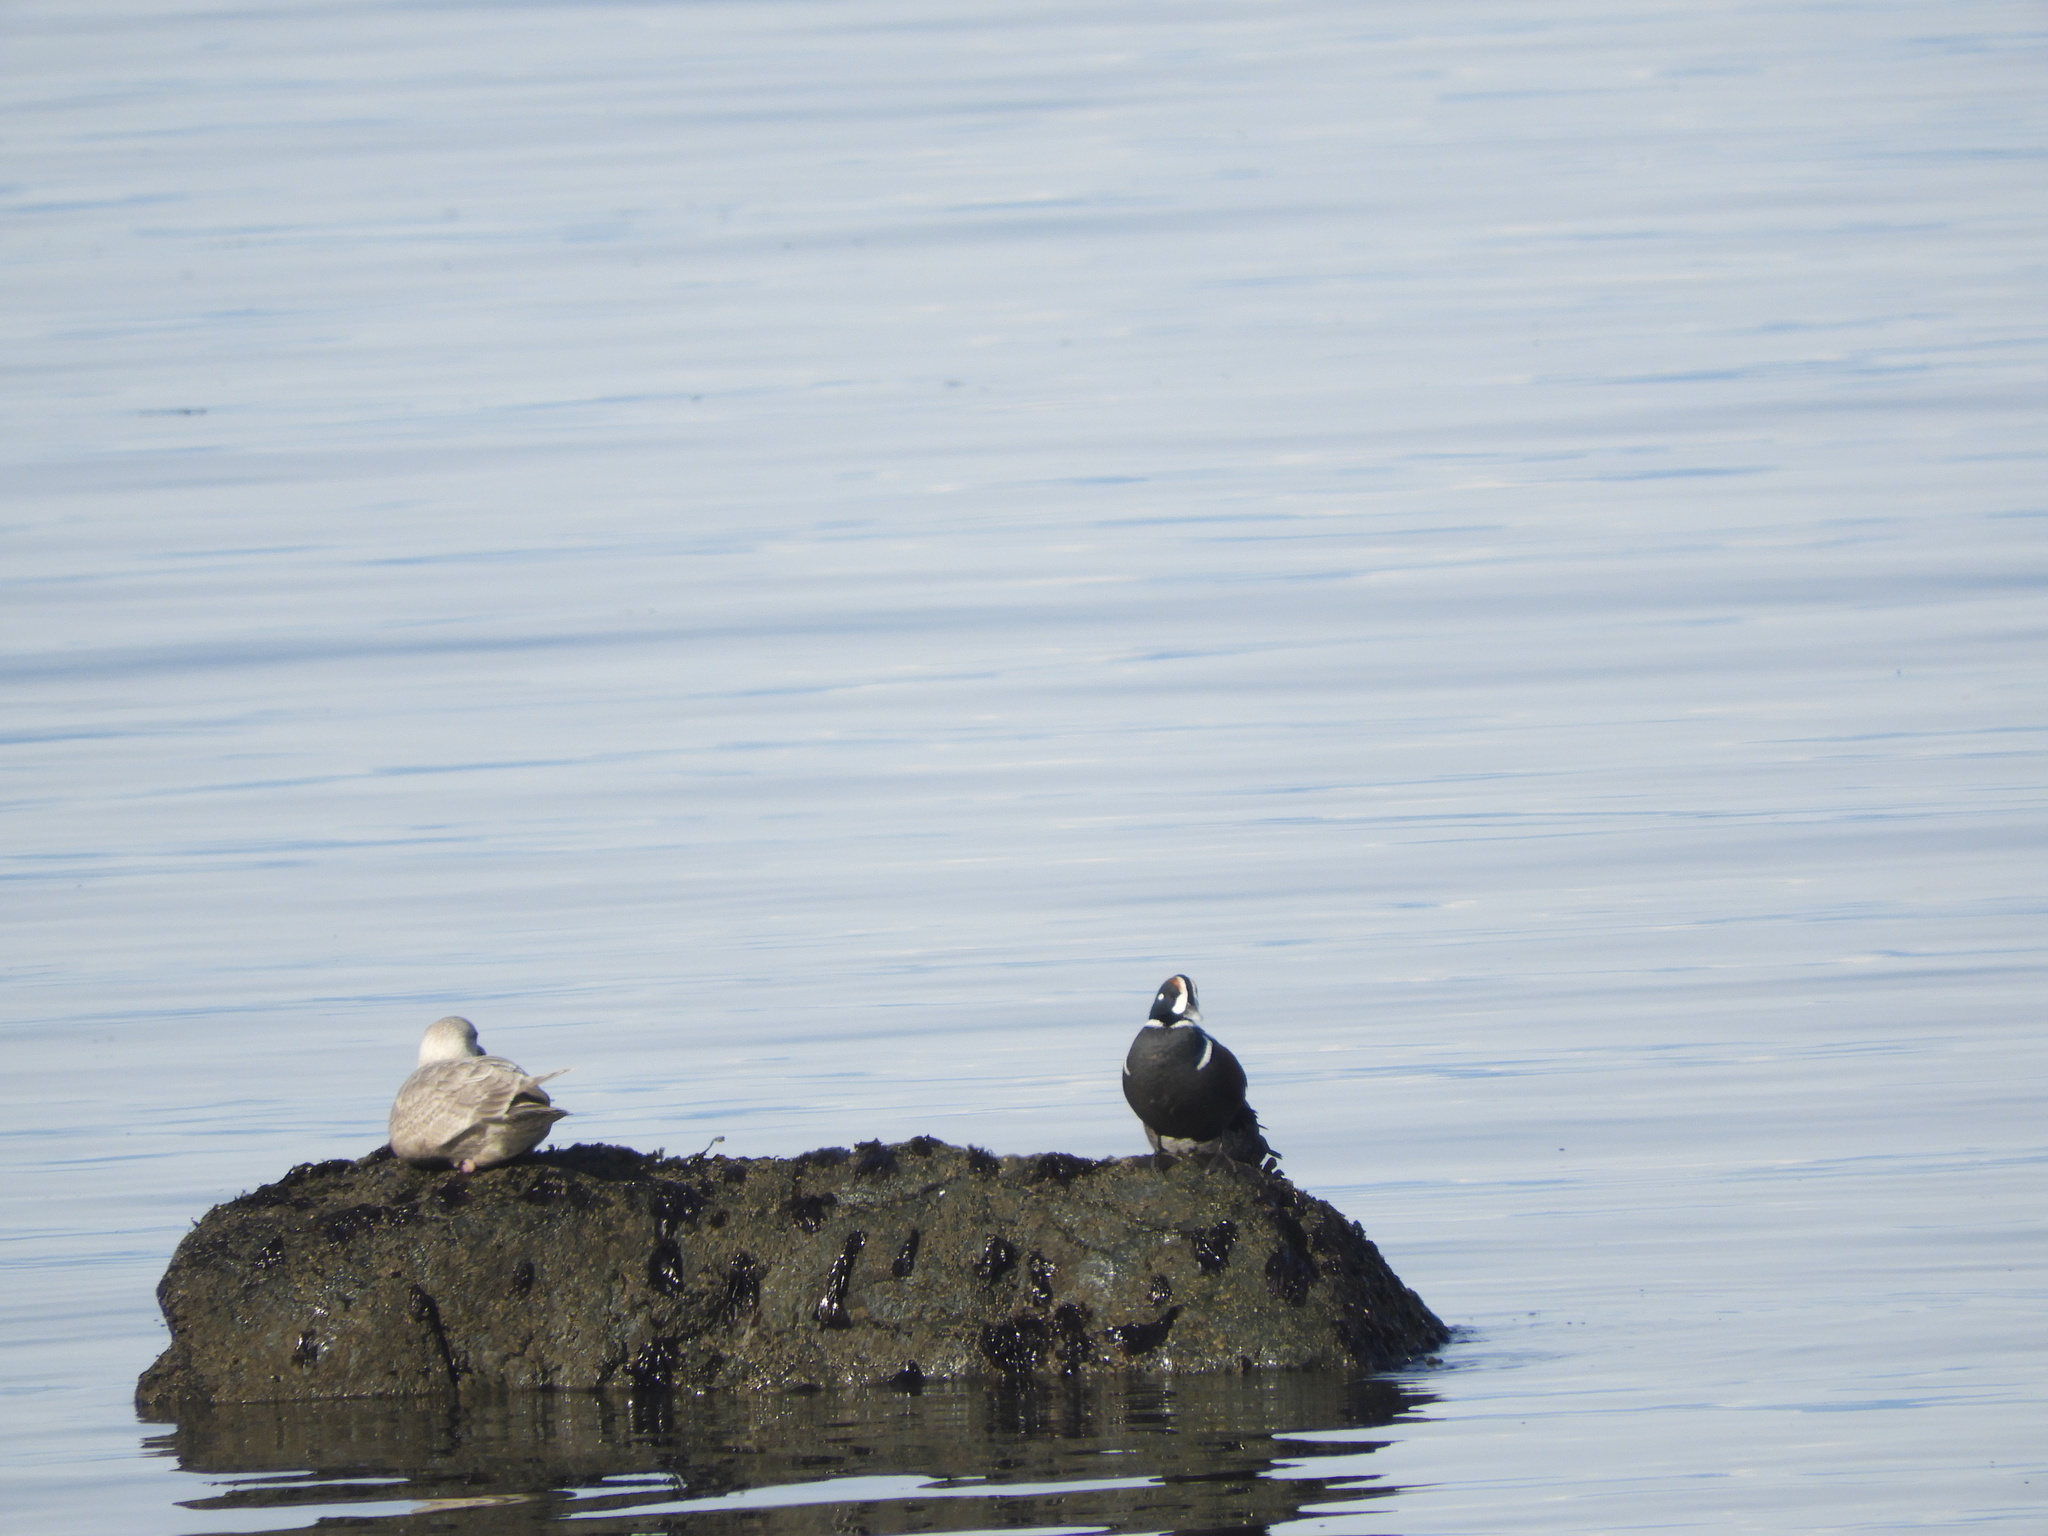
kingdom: Animalia
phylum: Chordata
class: Aves
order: Anseriformes
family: Anatidae
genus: Histrionicus
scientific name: Histrionicus histrionicus
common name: Harlequin duck
